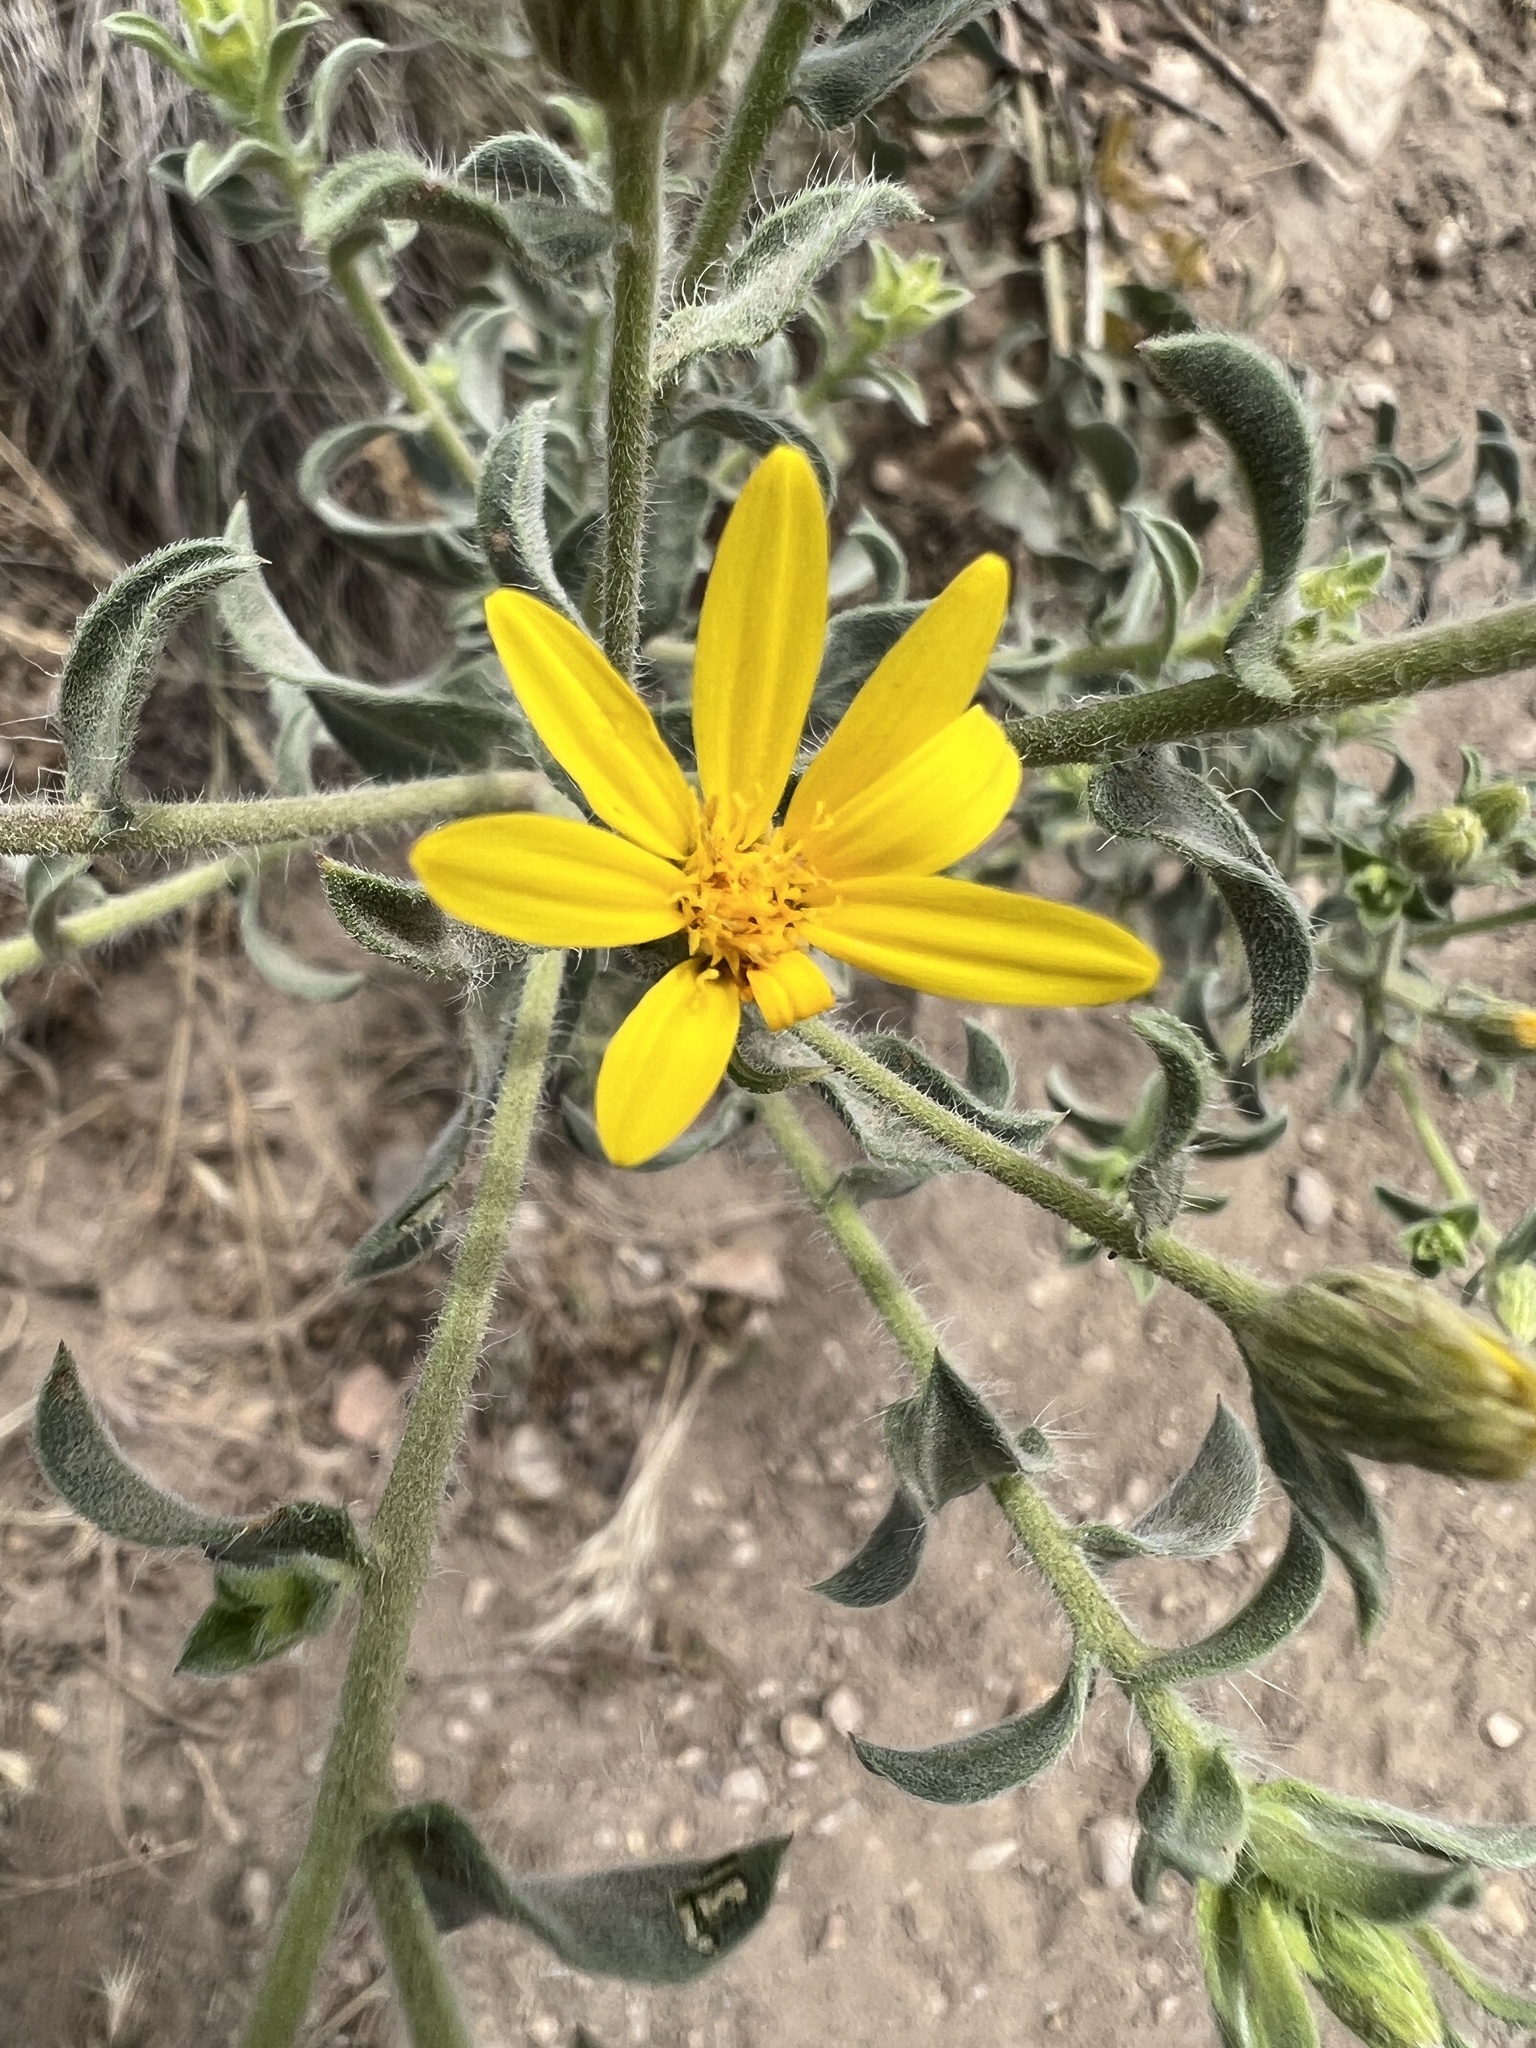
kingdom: Plantae
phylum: Tracheophyta
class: Magnoliopsida
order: Asterales
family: Asteraceae
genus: Heterotheca
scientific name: Heterotheca zionensis
